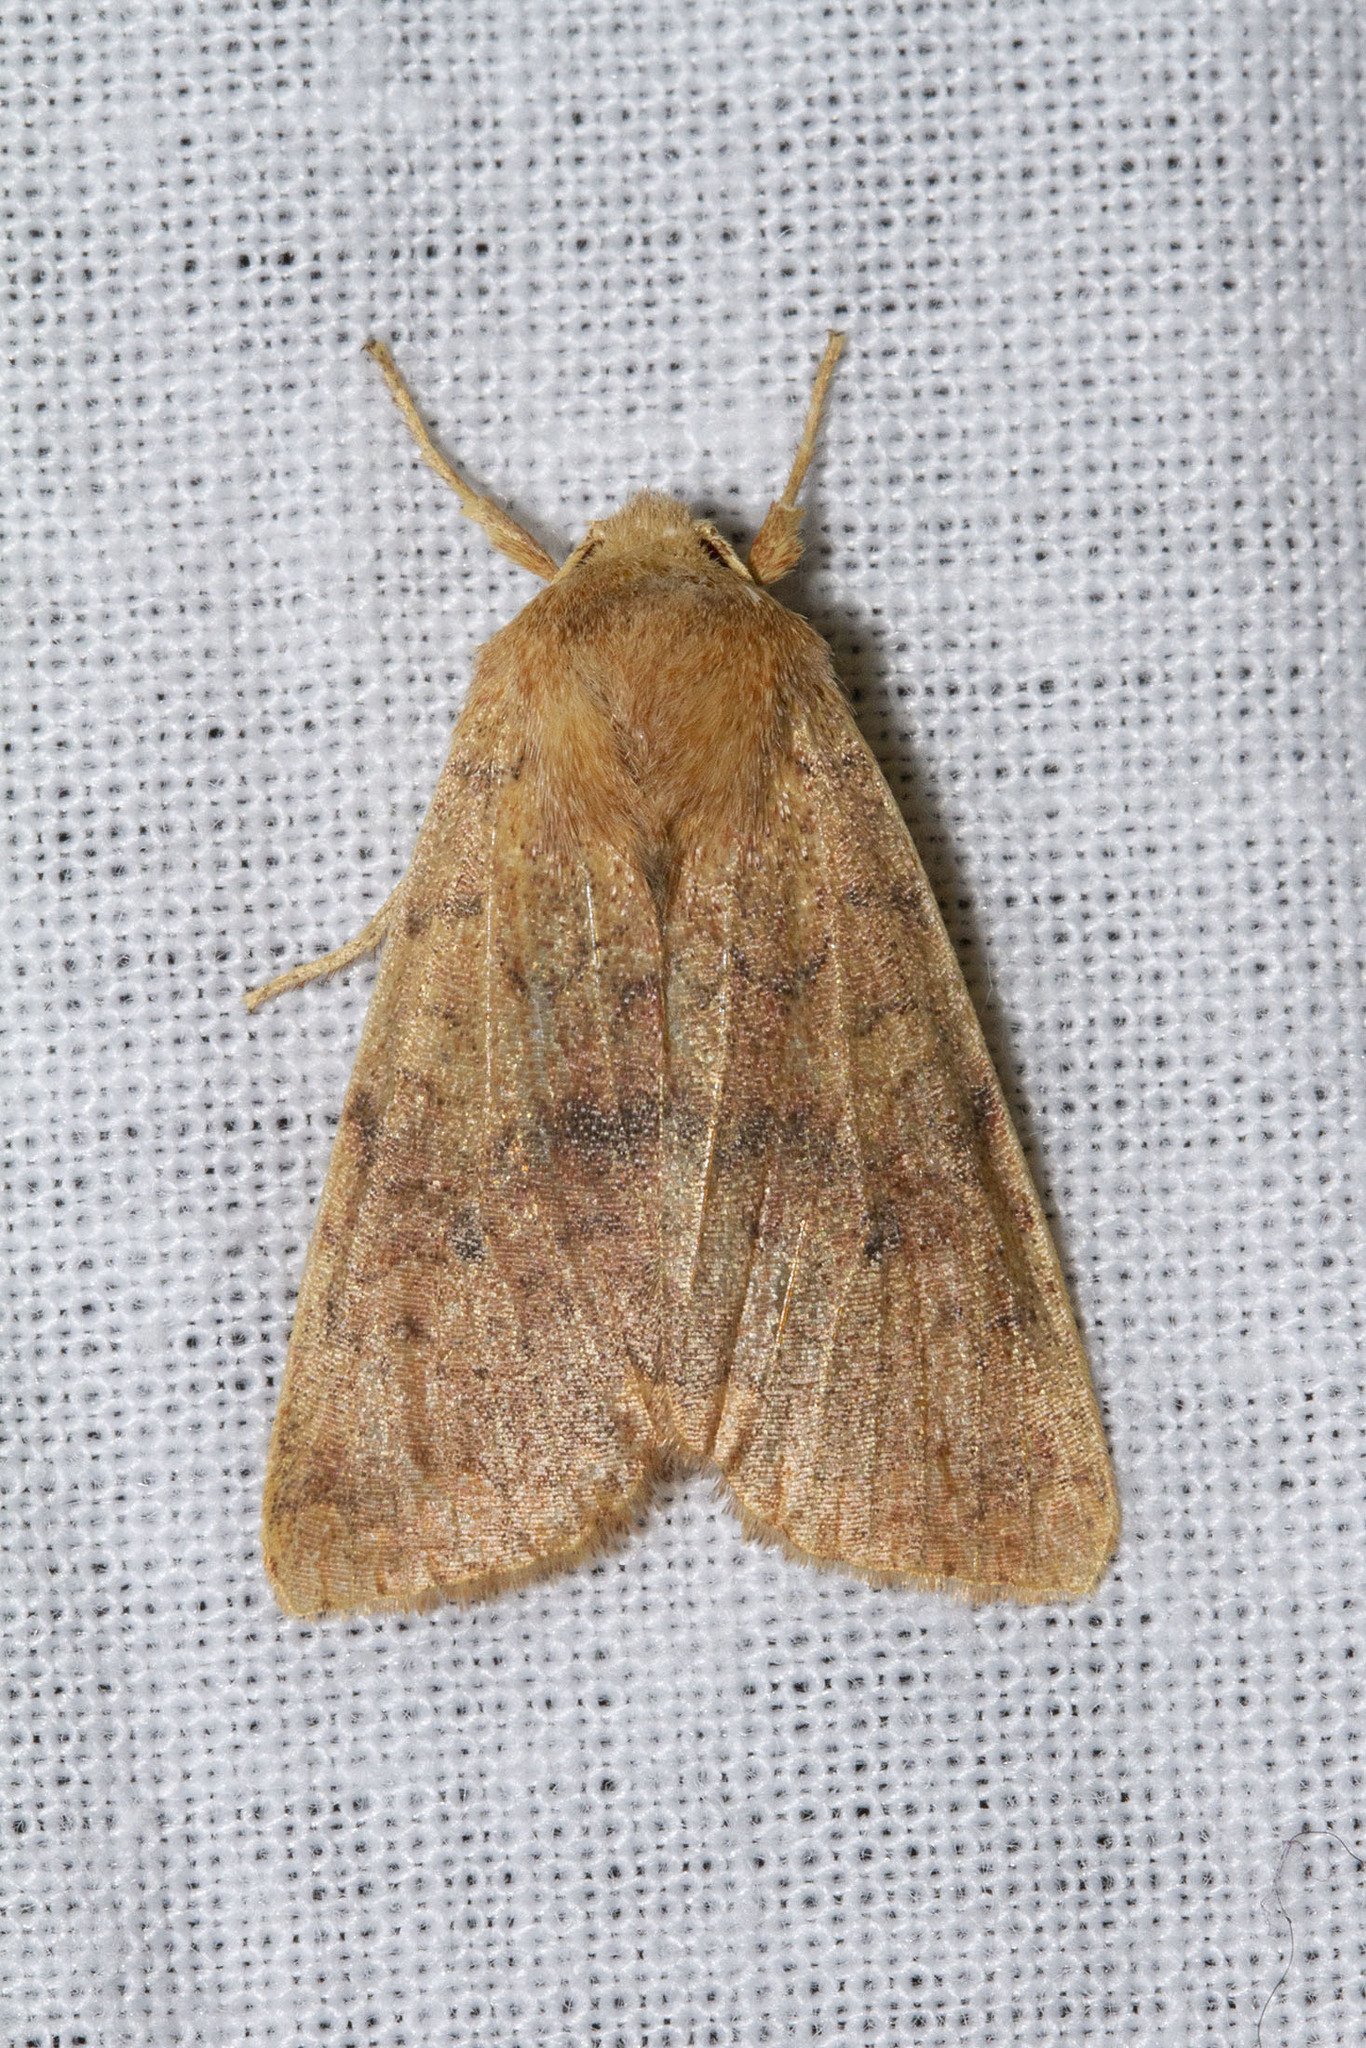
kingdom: Animalia
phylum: Arthropoda
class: Insecta
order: Lepidoptera
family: Noctuidae
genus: Agrochola
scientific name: Agrochola bicolorago
